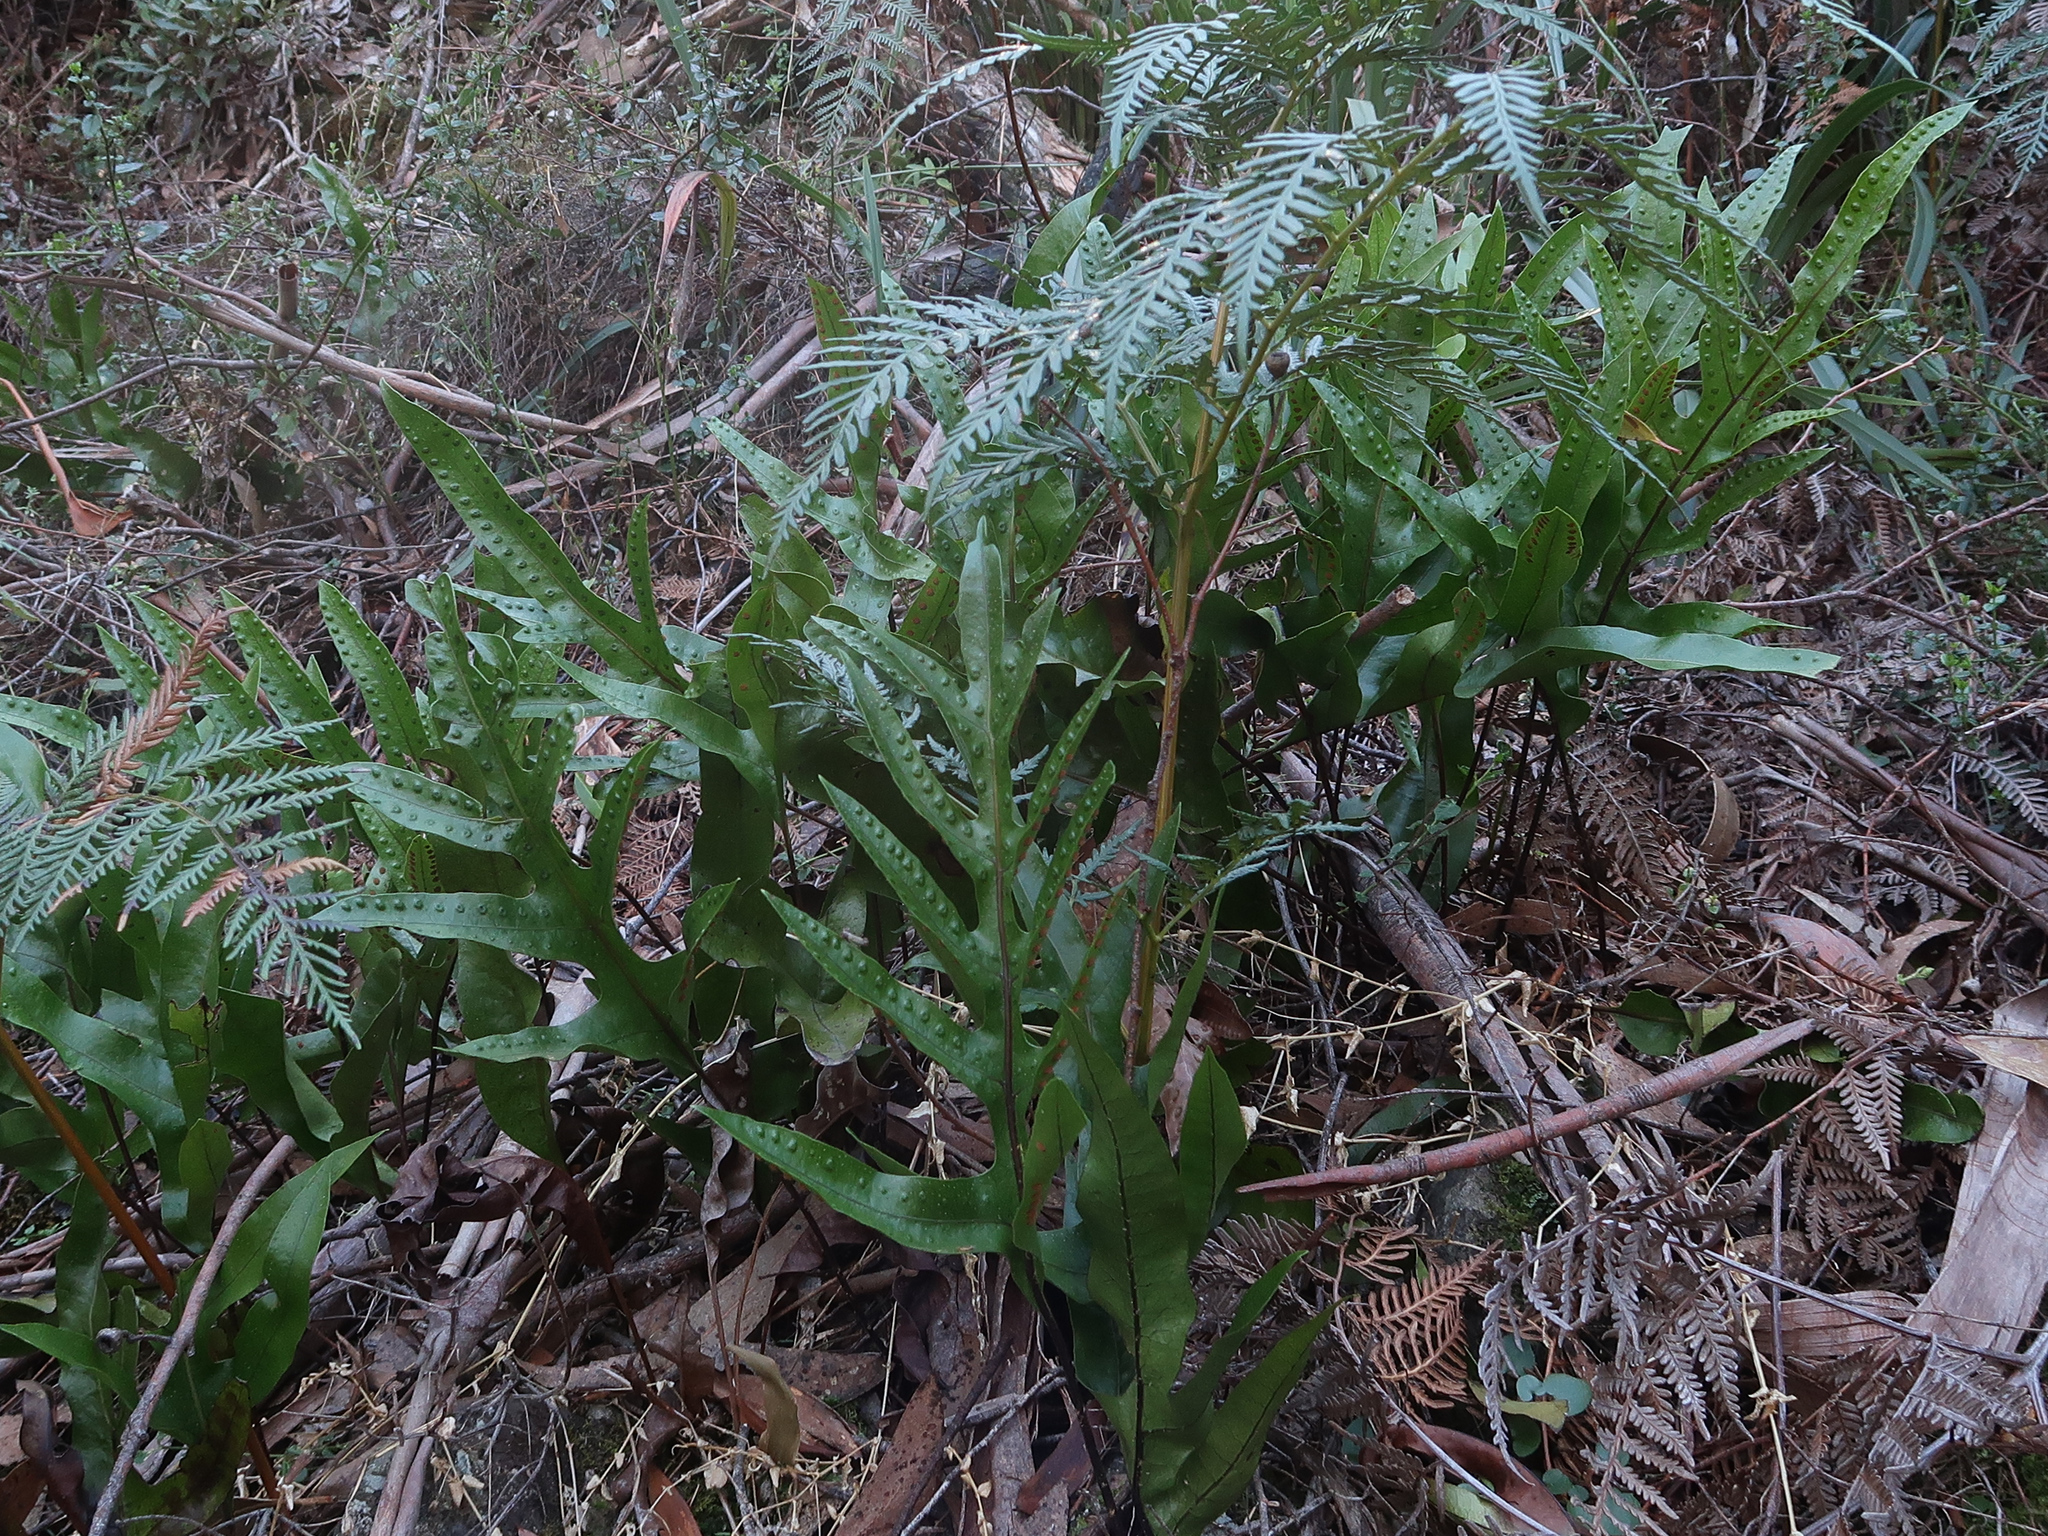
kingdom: Plantae
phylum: Tracheophyta
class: Polypodiopsida
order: Polypodiales
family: Polypodiaceae
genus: Lecanopteris
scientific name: Lecanopteris pustulata
